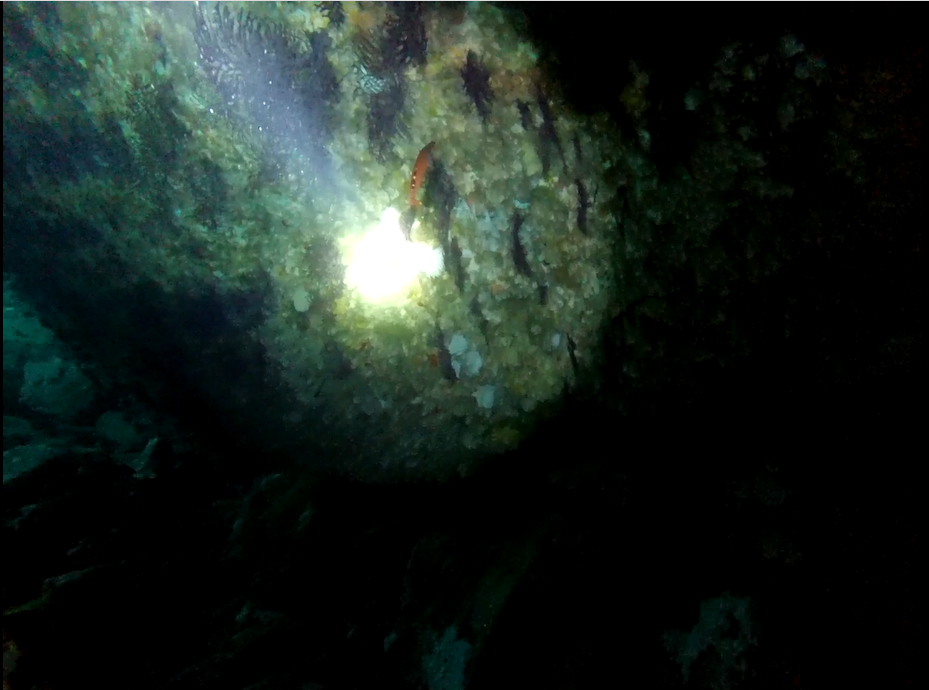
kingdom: Animalia
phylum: Chordata
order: Perciformes
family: Labridae
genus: Labrus
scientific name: Labrus mixtus
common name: Cuckoo wrasse
